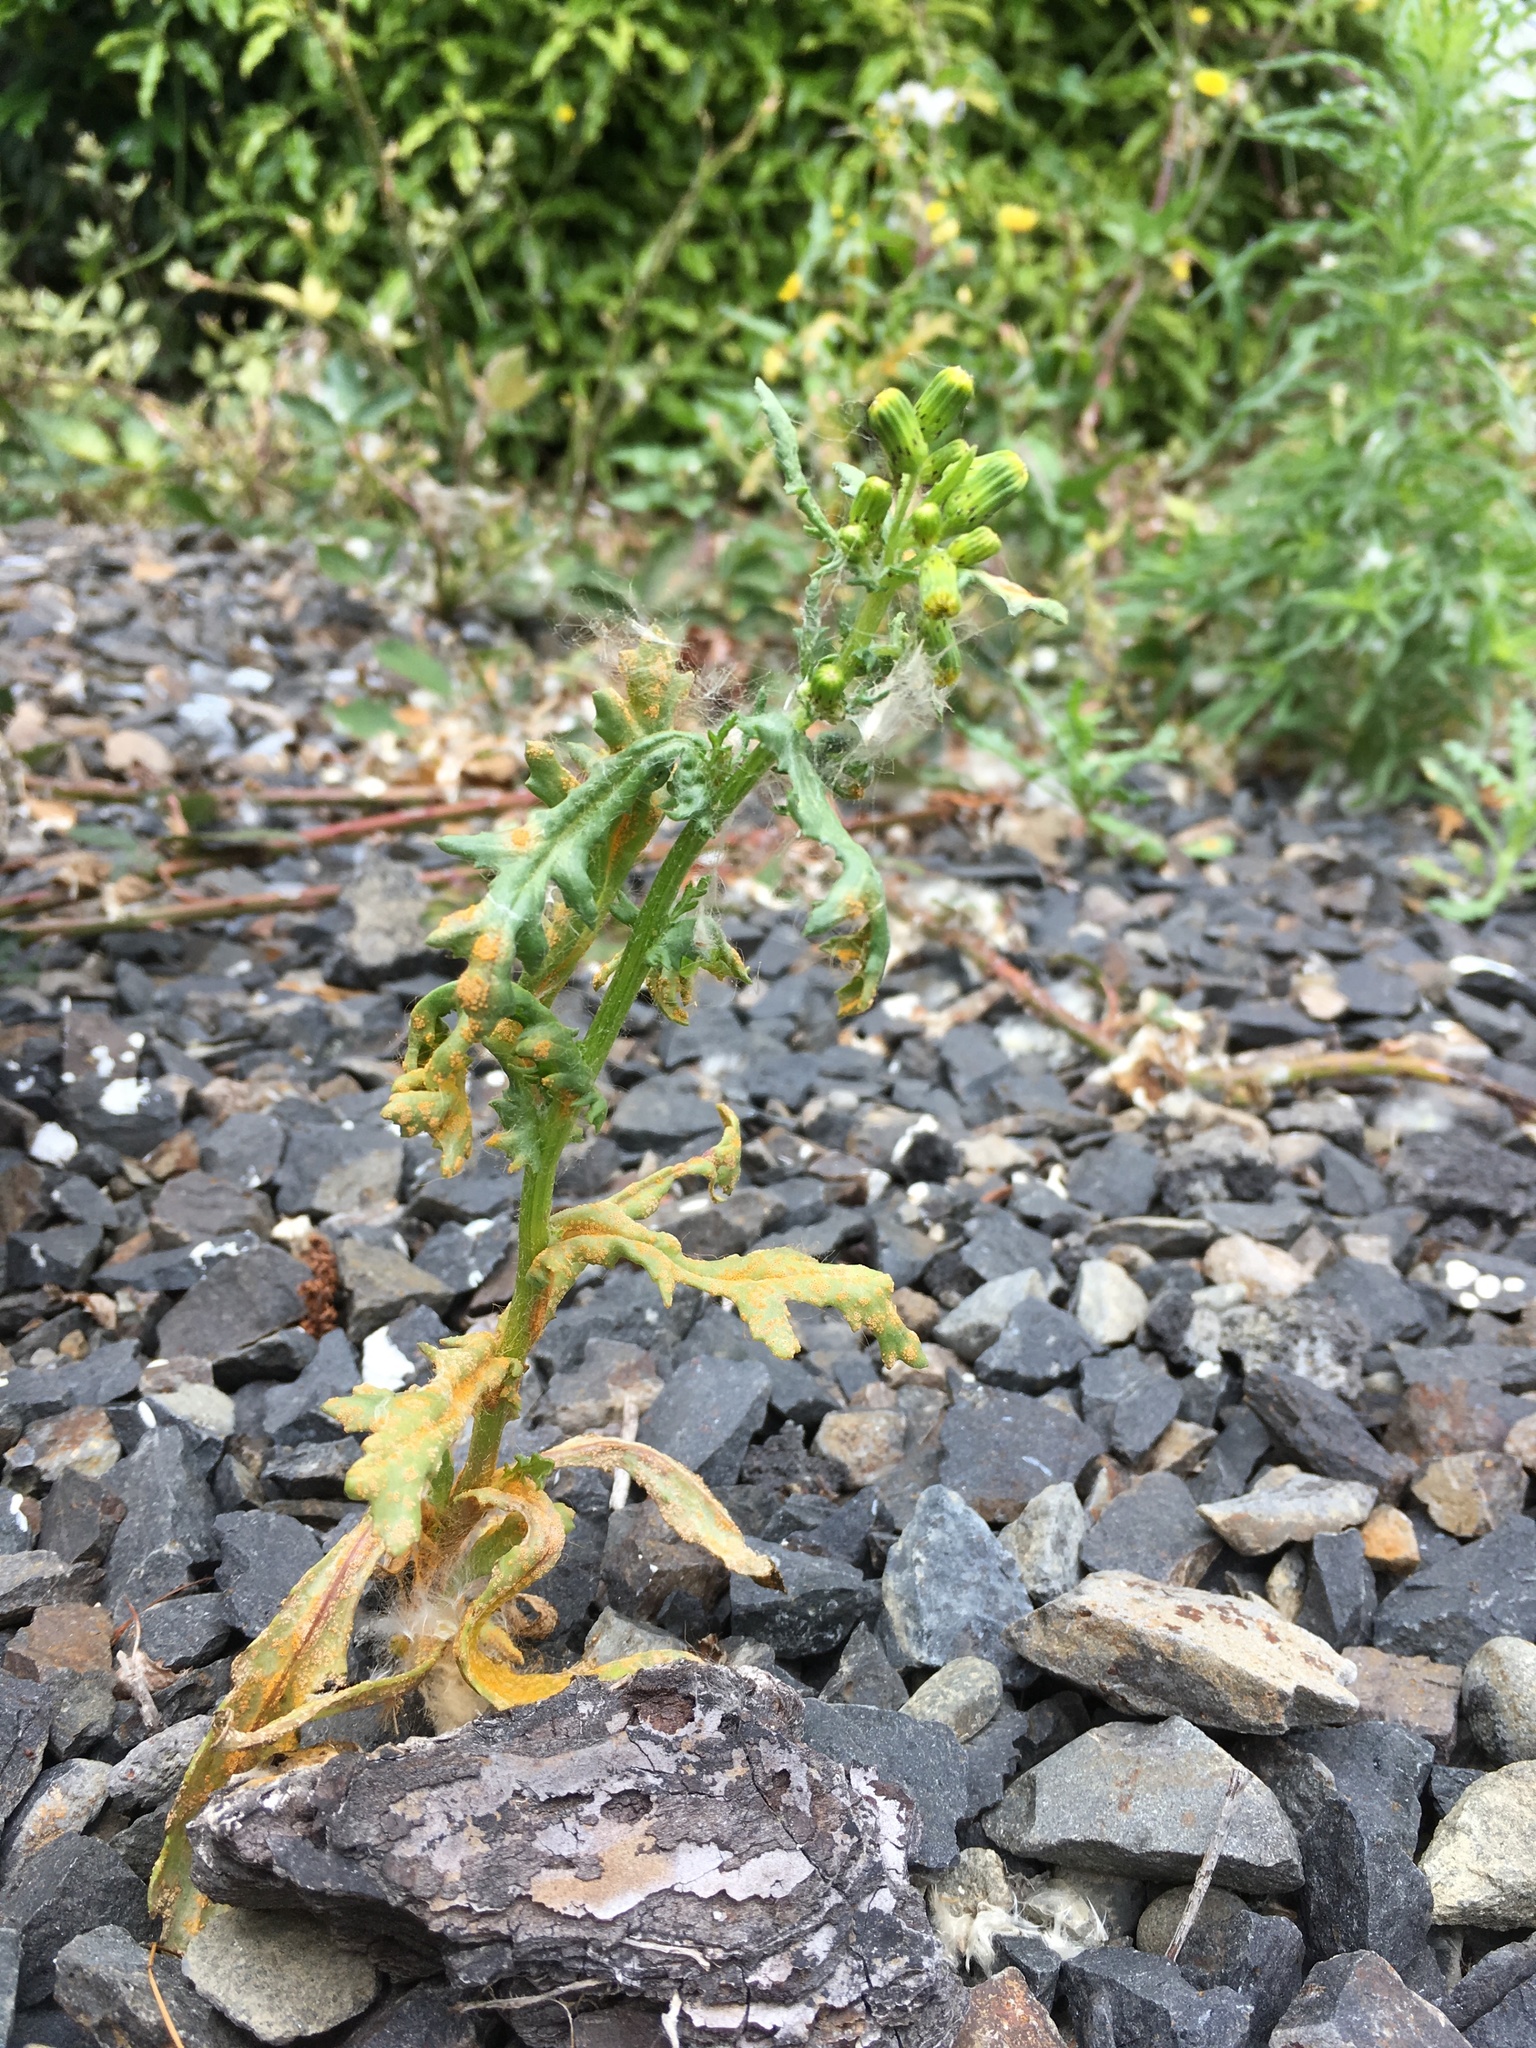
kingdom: Fungi
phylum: Basidiomycota
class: Pucciniomycetes
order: Pucciniales
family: Pucciniaceae
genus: Puccinia
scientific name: Puccinia lagenophorae
